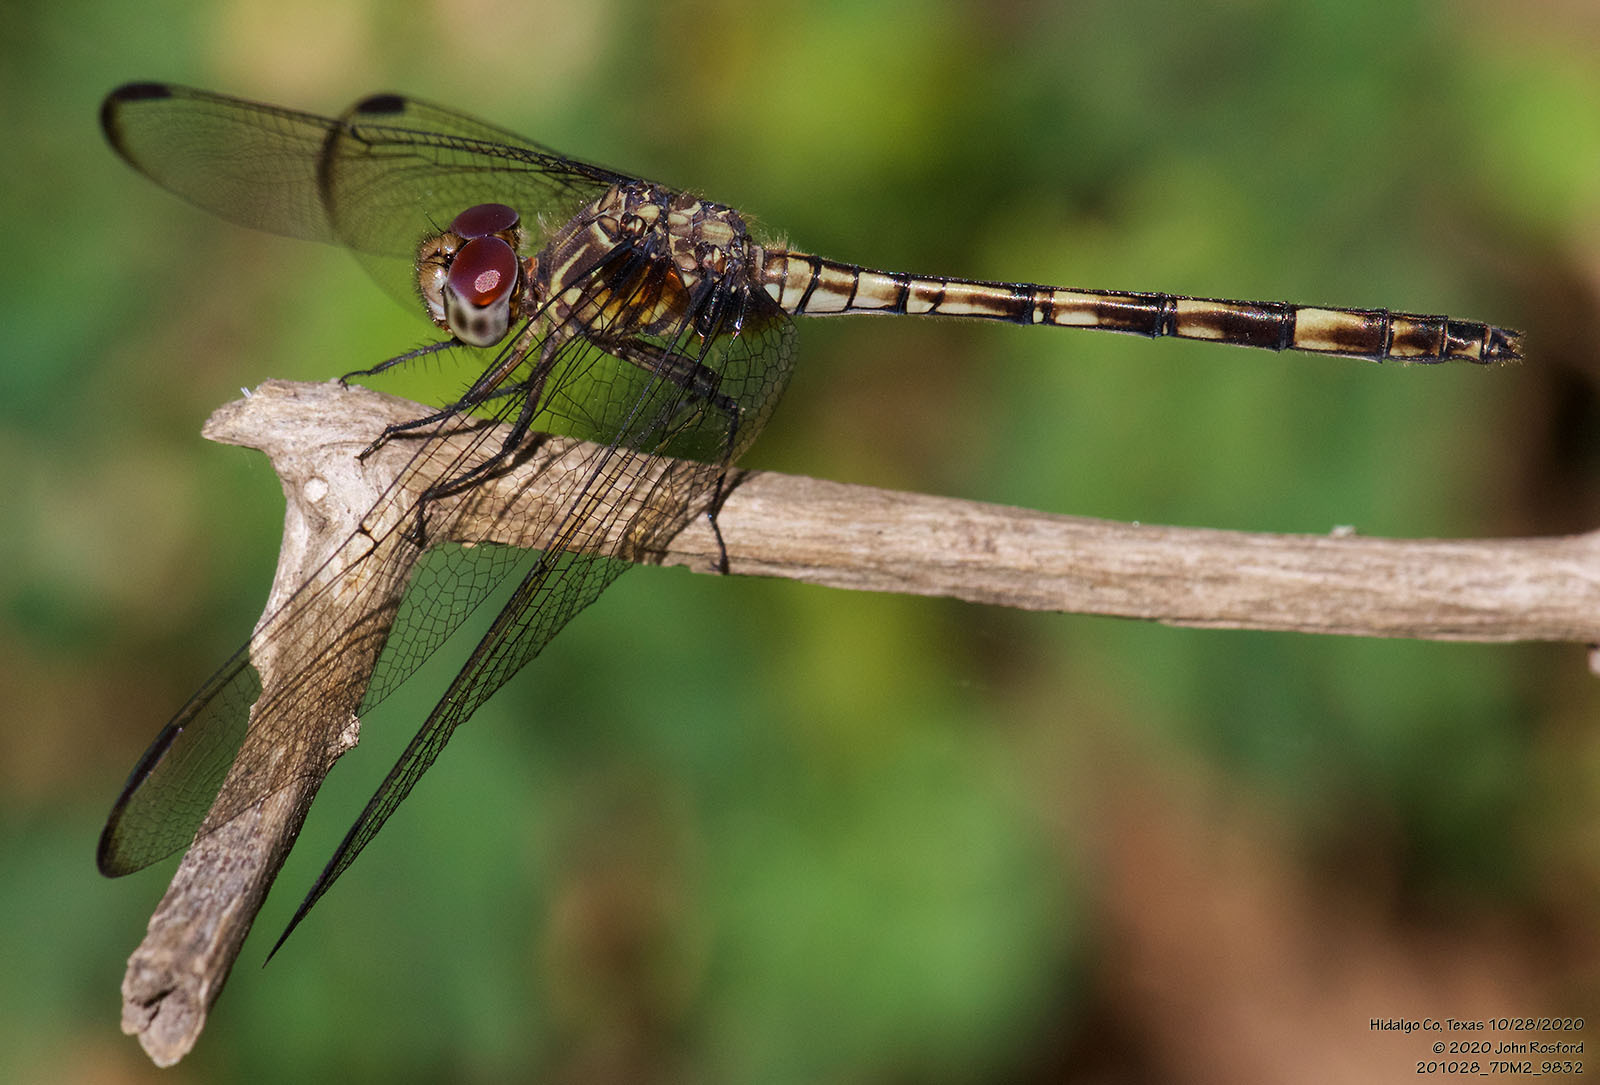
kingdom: Animalia
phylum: Arthropoda
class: Insecta
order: Odonata
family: Libellulidae
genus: Dythemis
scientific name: Dythemis nigrescens
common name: Black setwing
